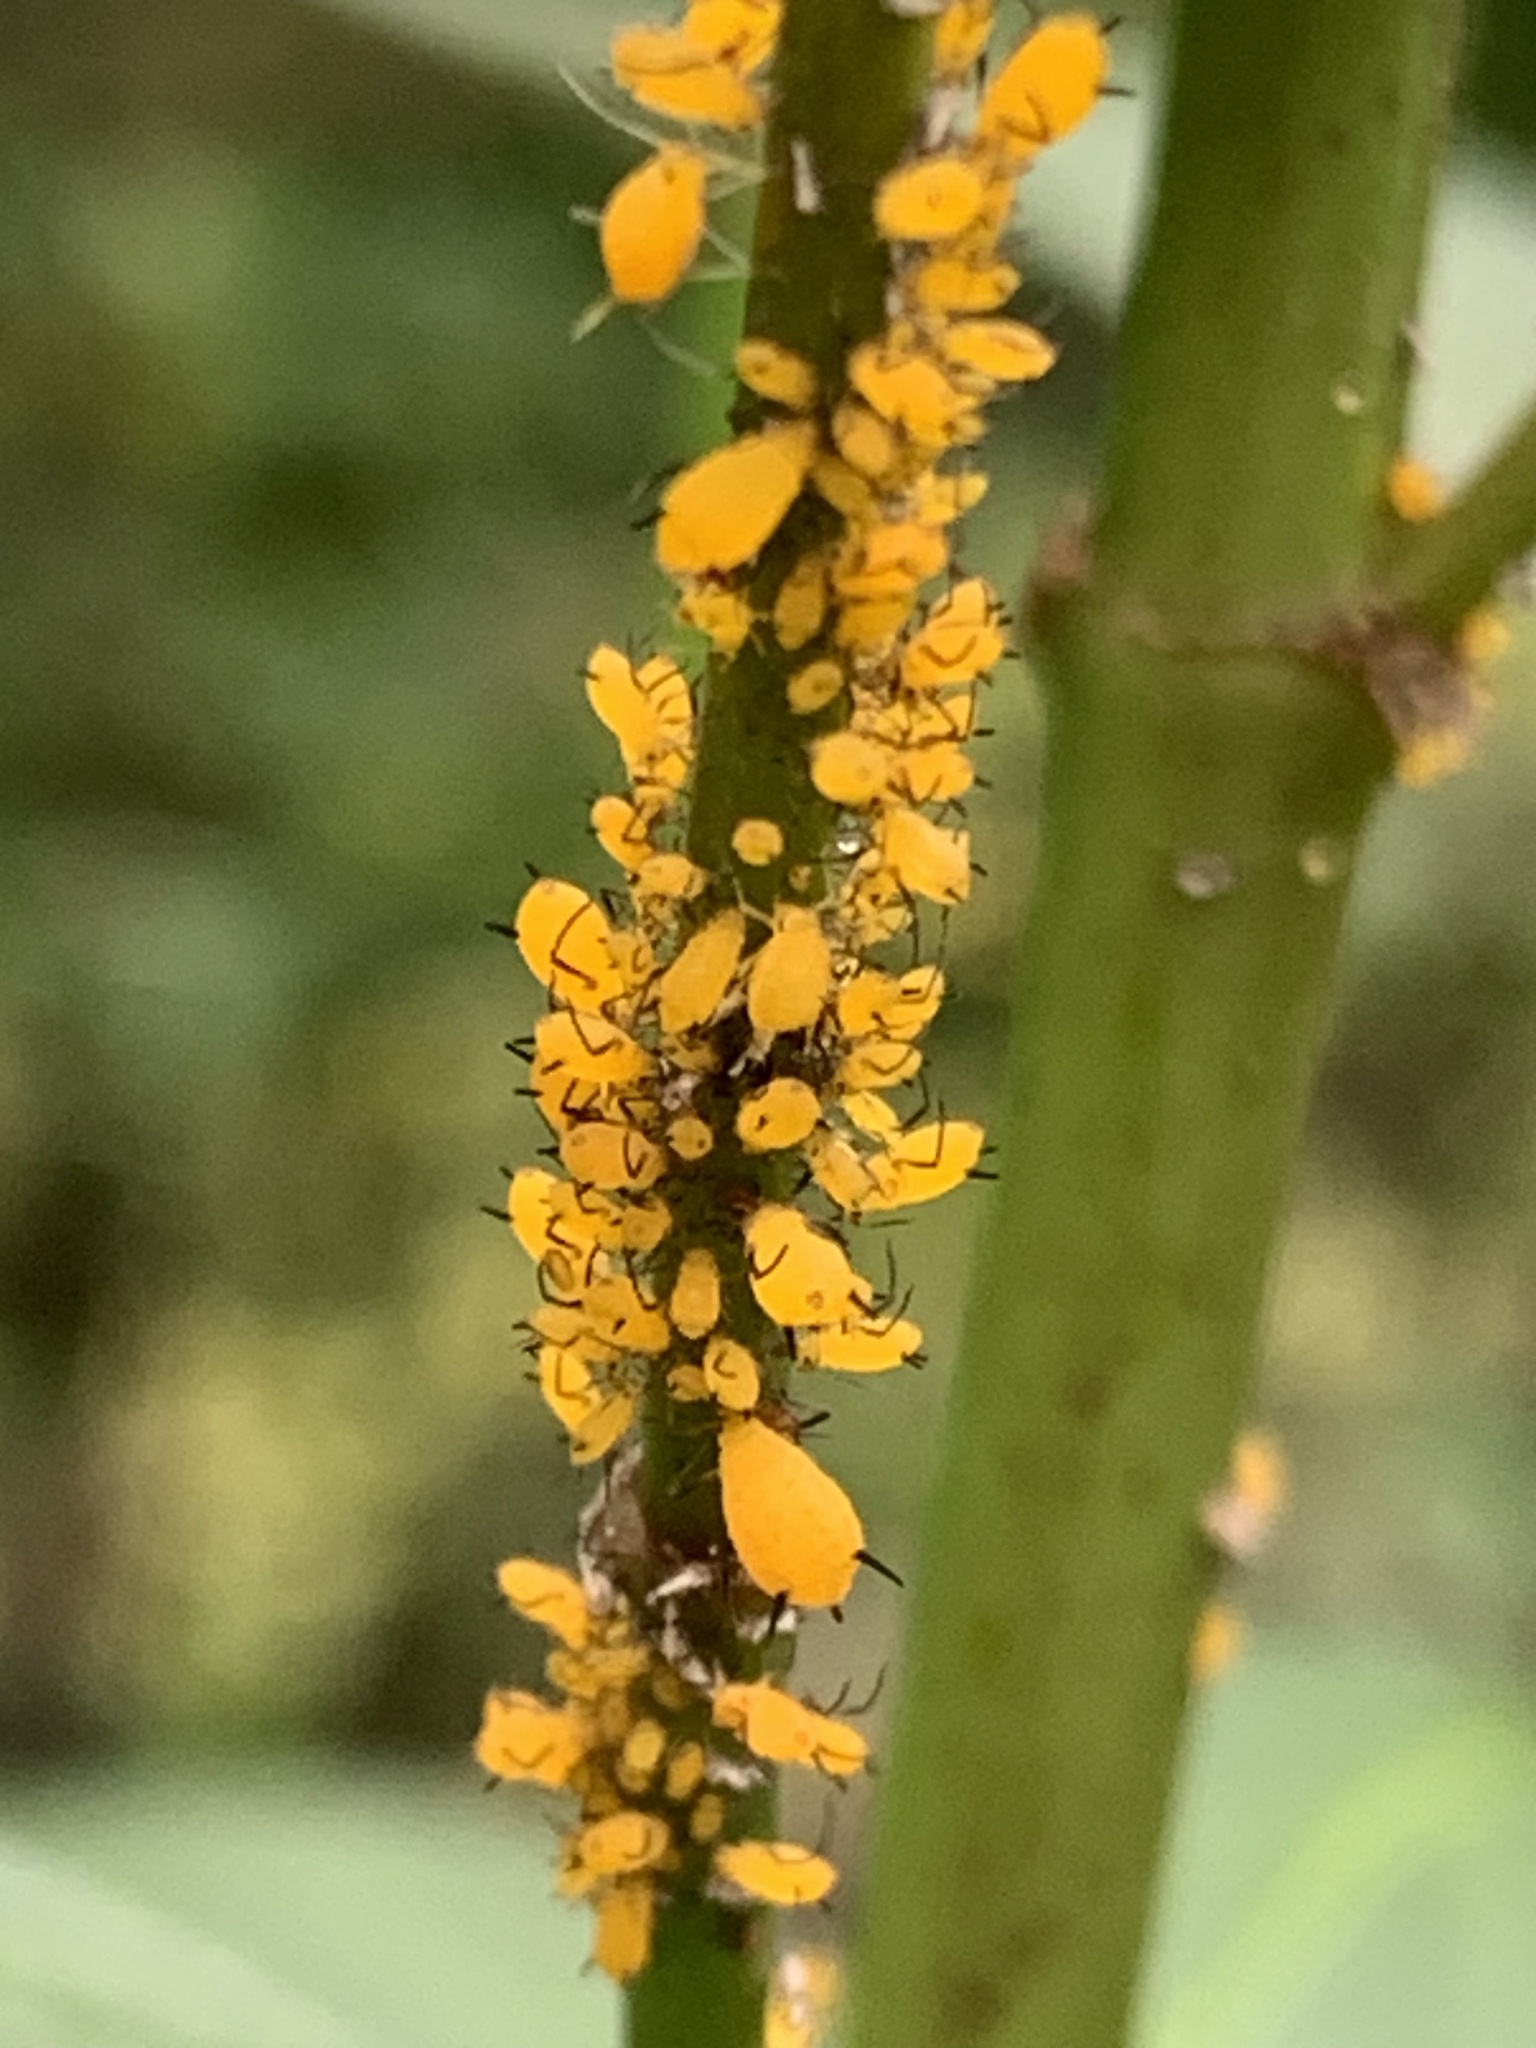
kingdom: Animalia
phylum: Arthropoda
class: Insecta
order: Hemiptera
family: Aphididae
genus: Aphis
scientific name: Aphis nerii
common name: Oleander aphid
